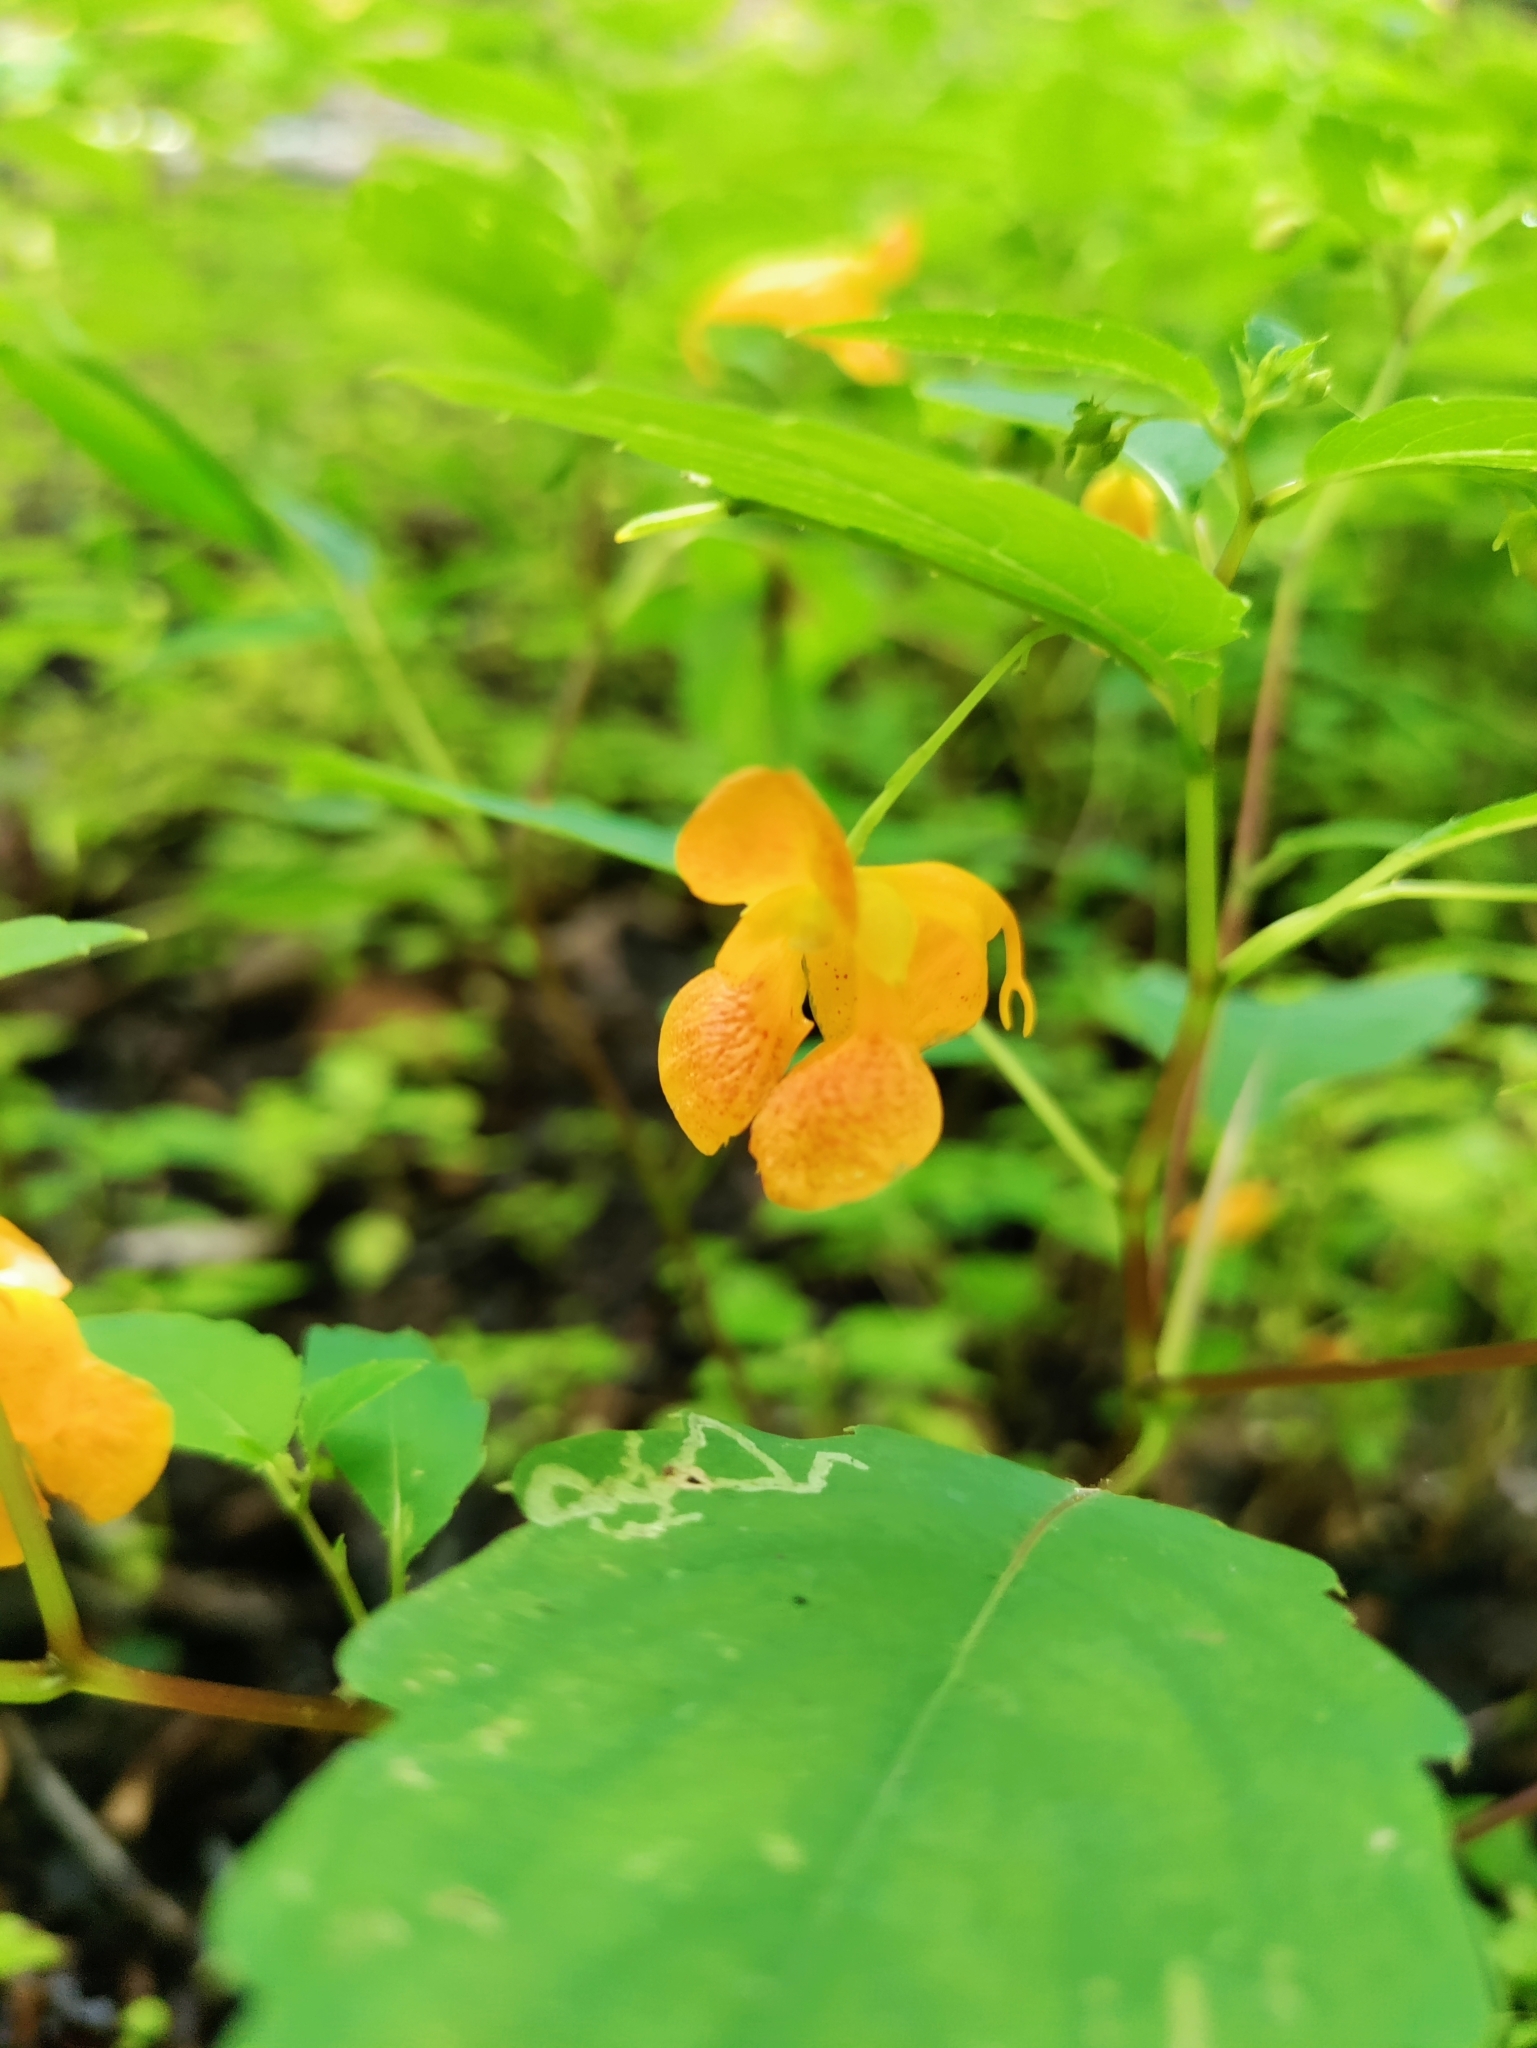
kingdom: Plantae
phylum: Tracheophyta
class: Magnoliopsida
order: Ericales
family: Balsaminaceae
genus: Impatiens
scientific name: Impatiens capensis
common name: Orange balsam
